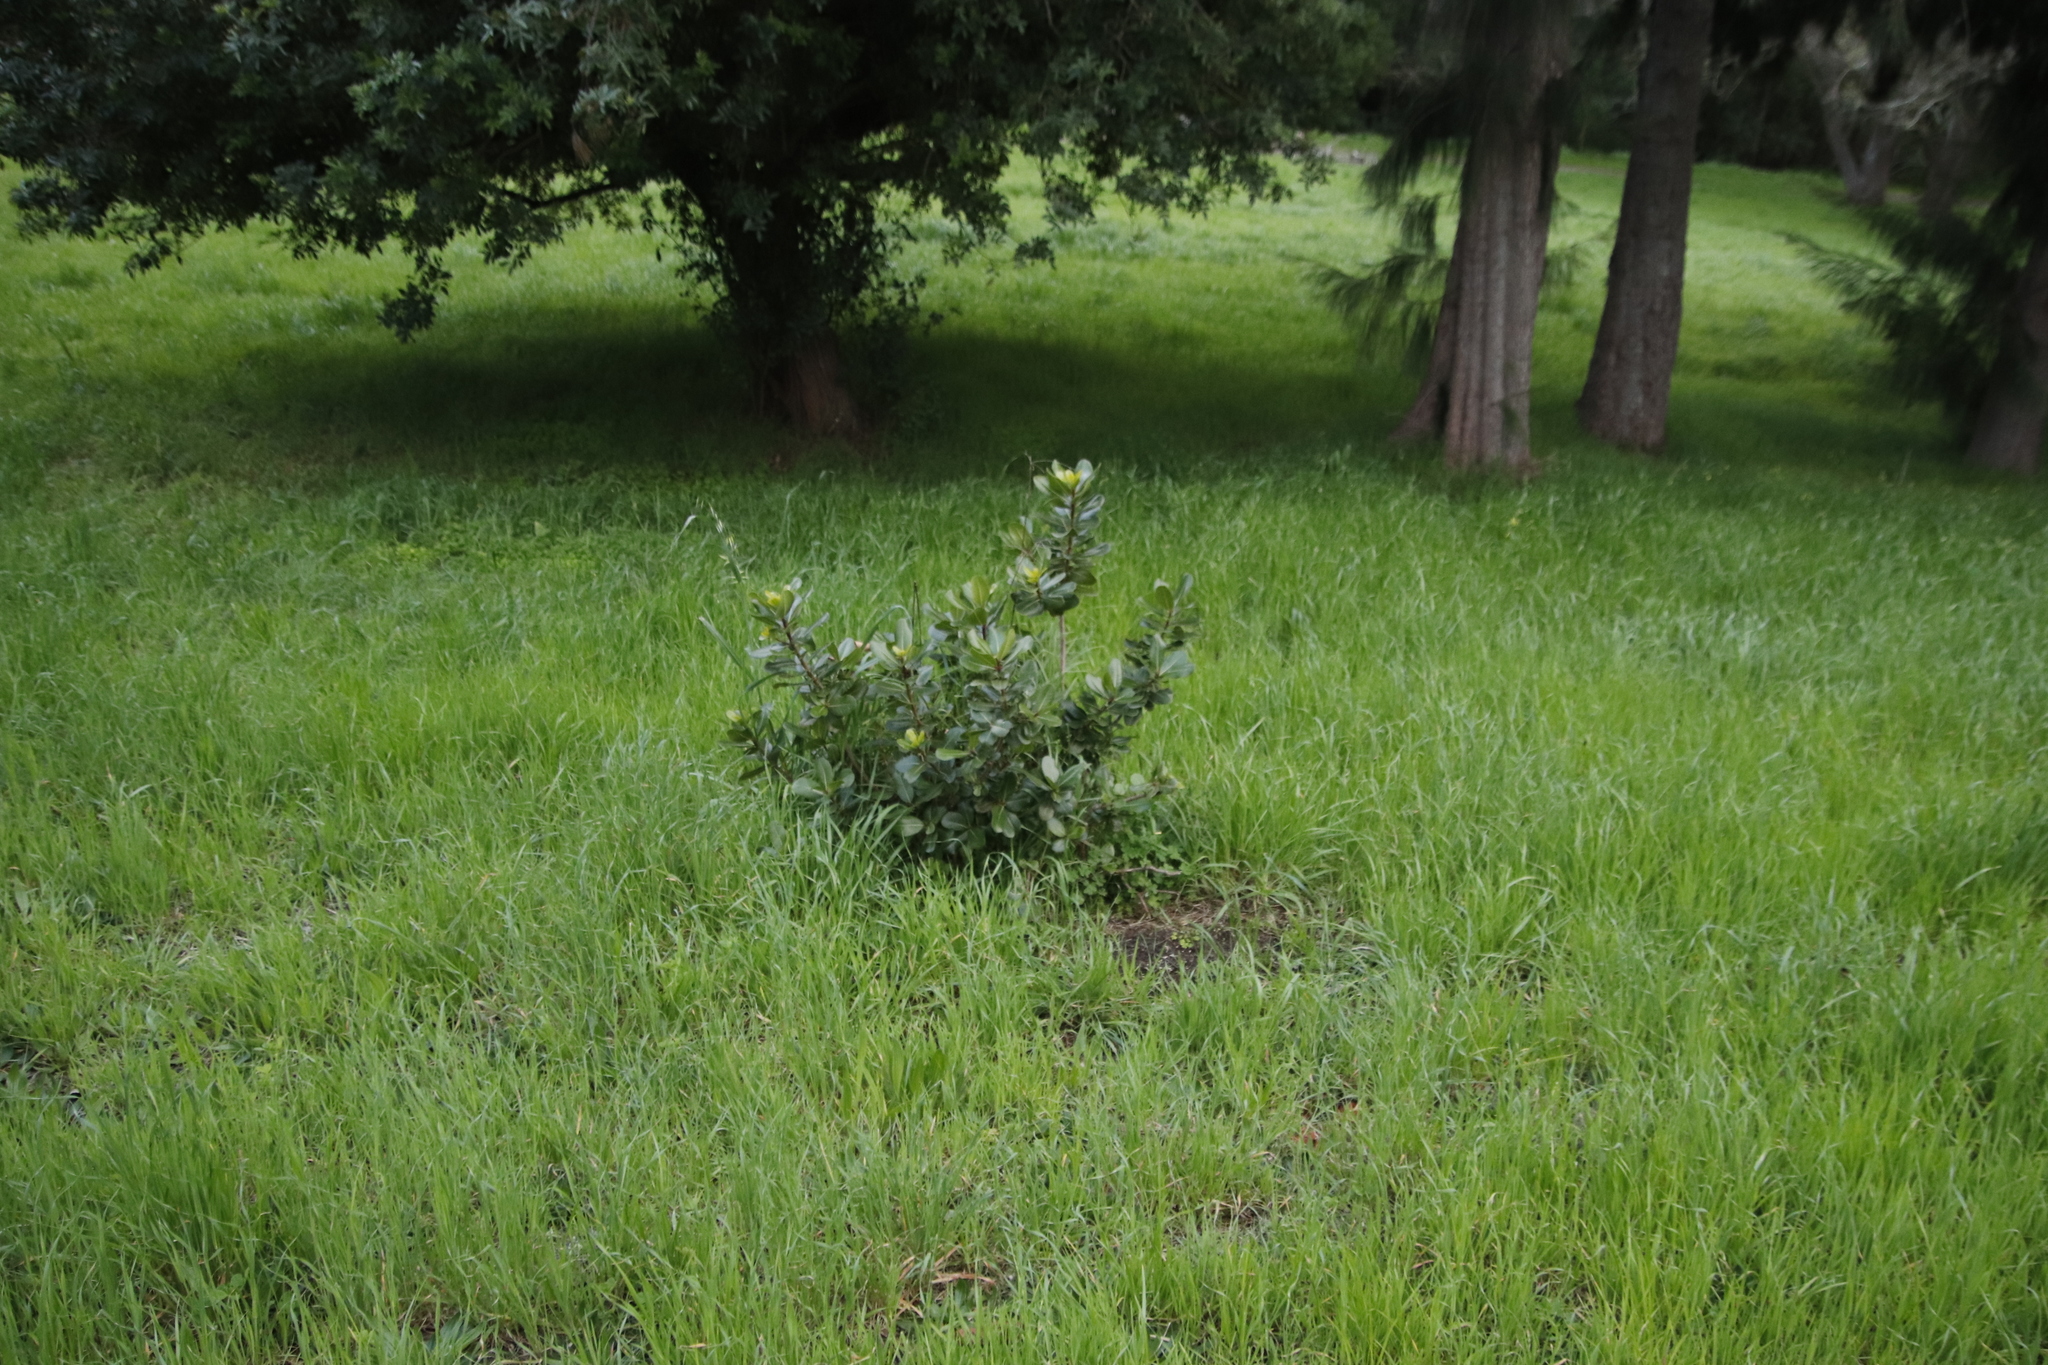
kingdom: Plantae
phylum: Tracheophyta
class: Magnoliopsida
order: Ericales
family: Sapotaceae
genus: Sideroxylon
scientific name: Sideroxylon inerme
